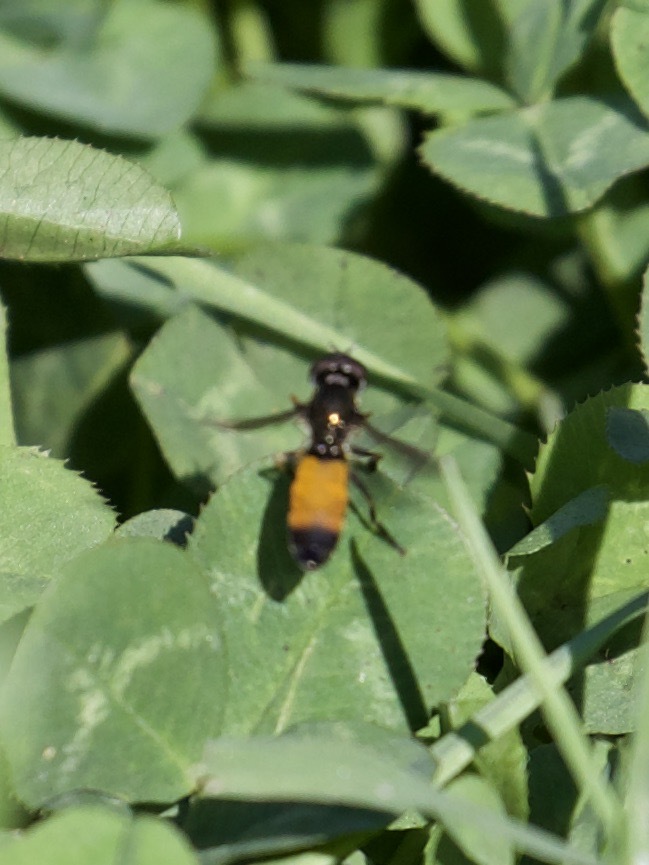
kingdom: Animalia
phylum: Arthropoda
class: Insecta
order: Diptera
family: Syrphidae
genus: Pyrophaena
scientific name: Pyrophaena granditarsa
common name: Hornhand sedgesitter
